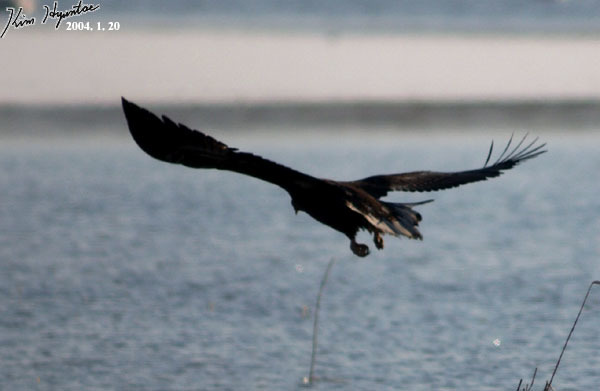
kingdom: Animalia
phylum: Chordata
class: Aves
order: Accipitriformes
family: Accipitridae
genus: Haliaeetus
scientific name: Haliaeetus pelagicus
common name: Steller's sea eagle
